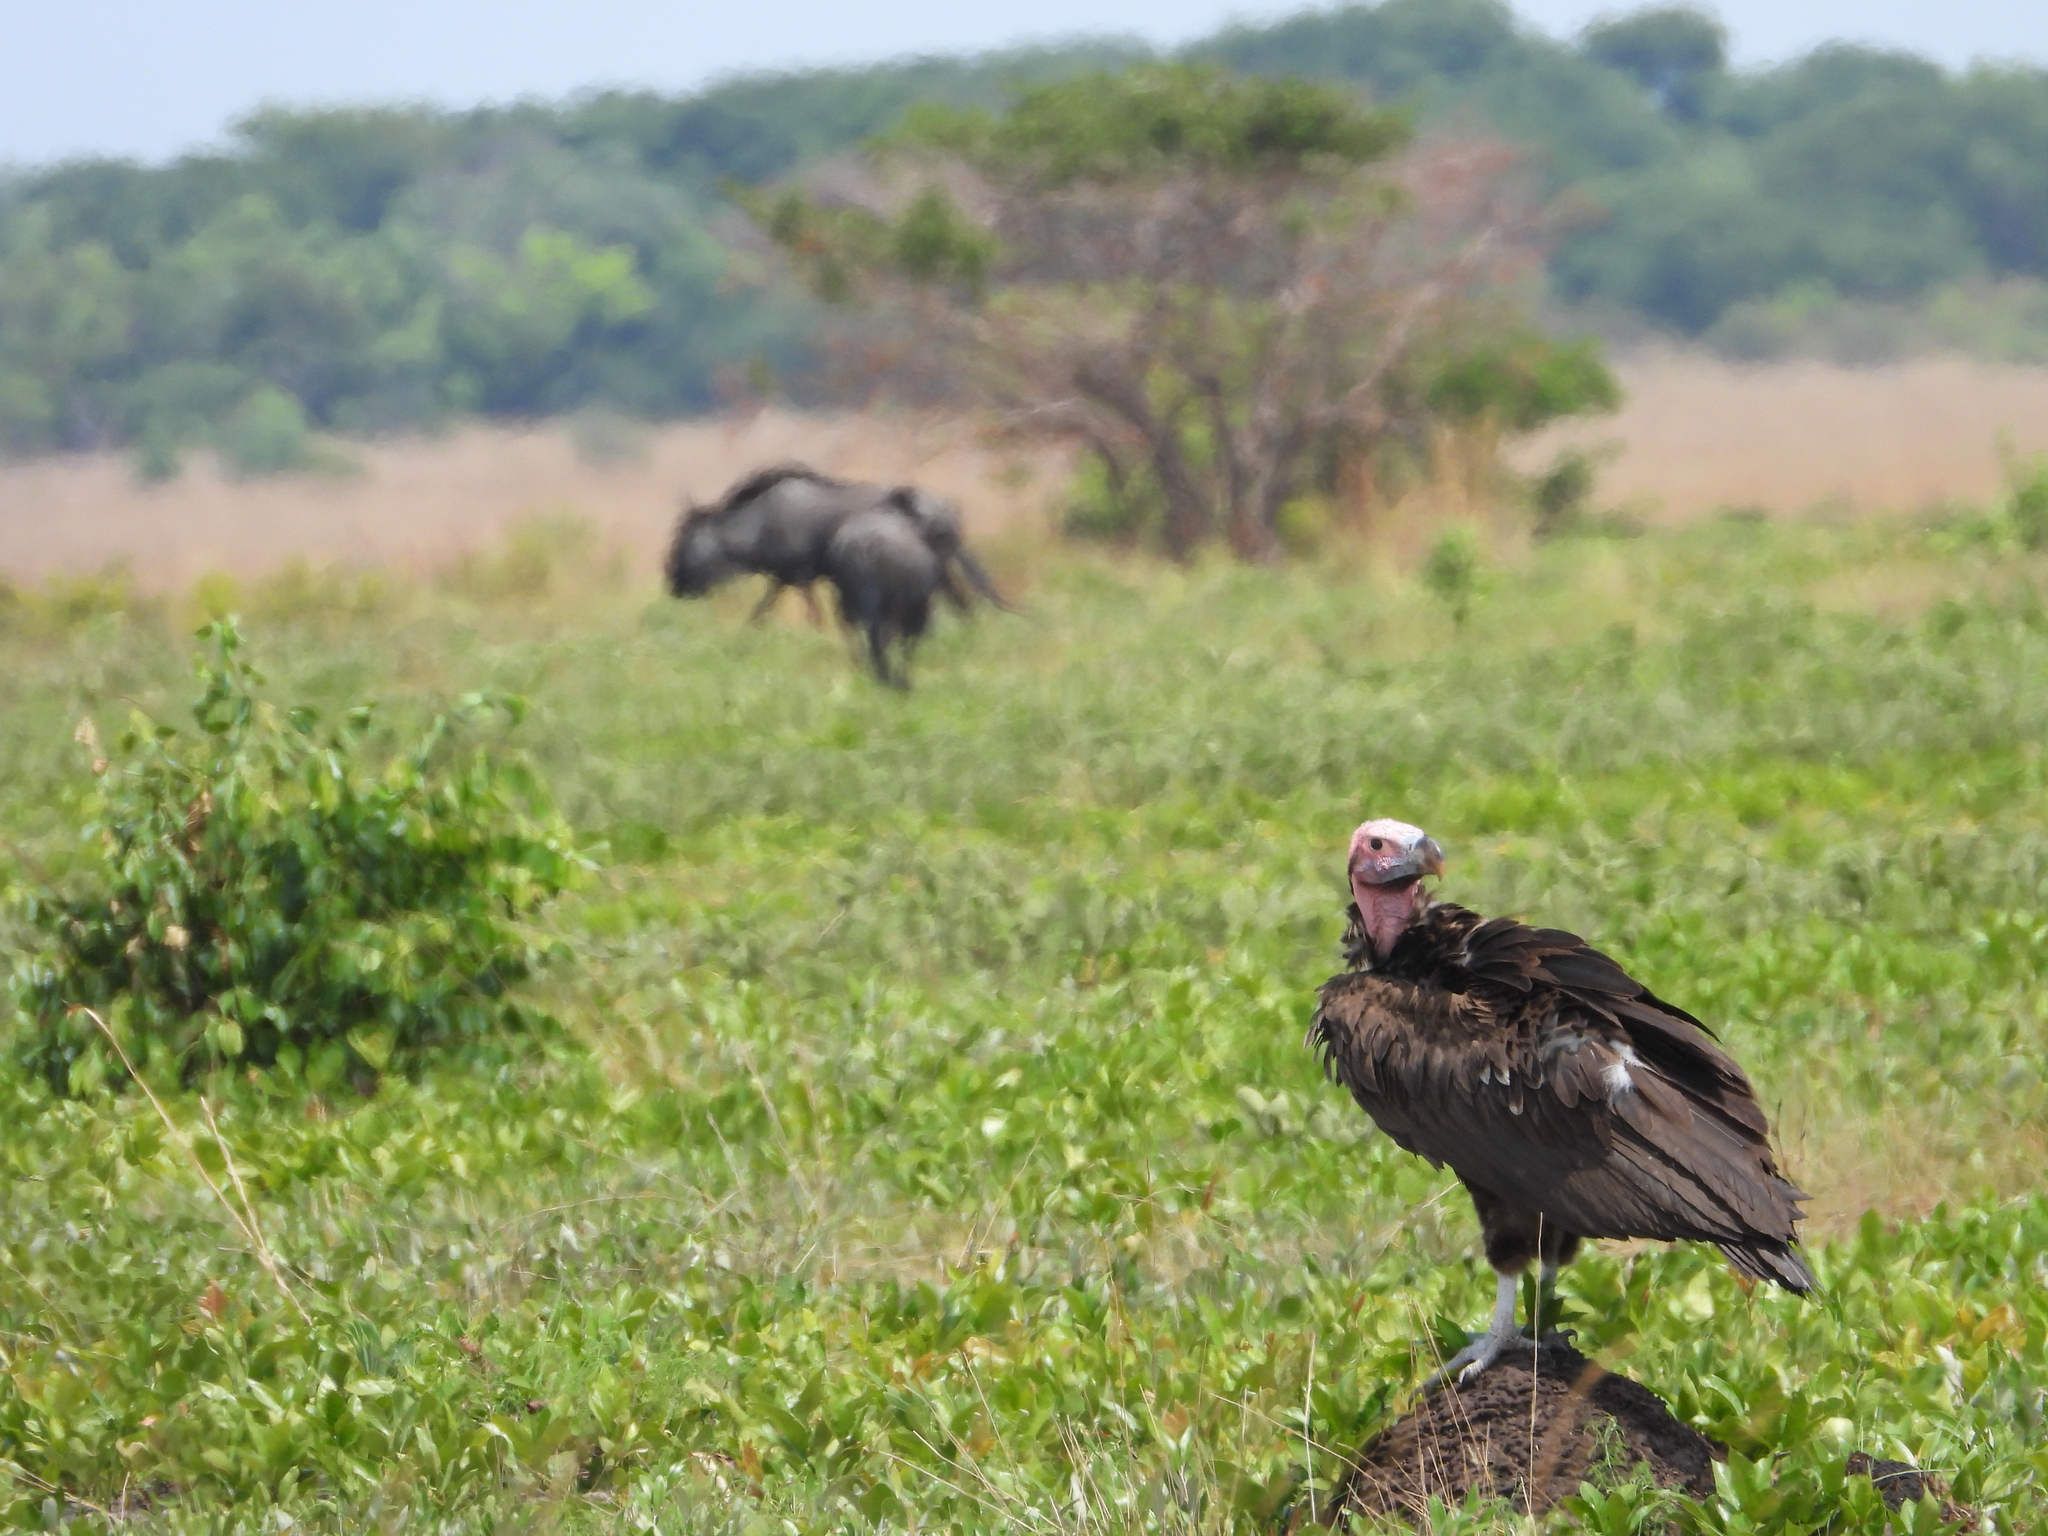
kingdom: Animalia
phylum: Chordata
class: Aves
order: Accipitriformes
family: Accipitridae
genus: Torgos
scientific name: Torgos tracheliotos
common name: Lappet-faced vulture
